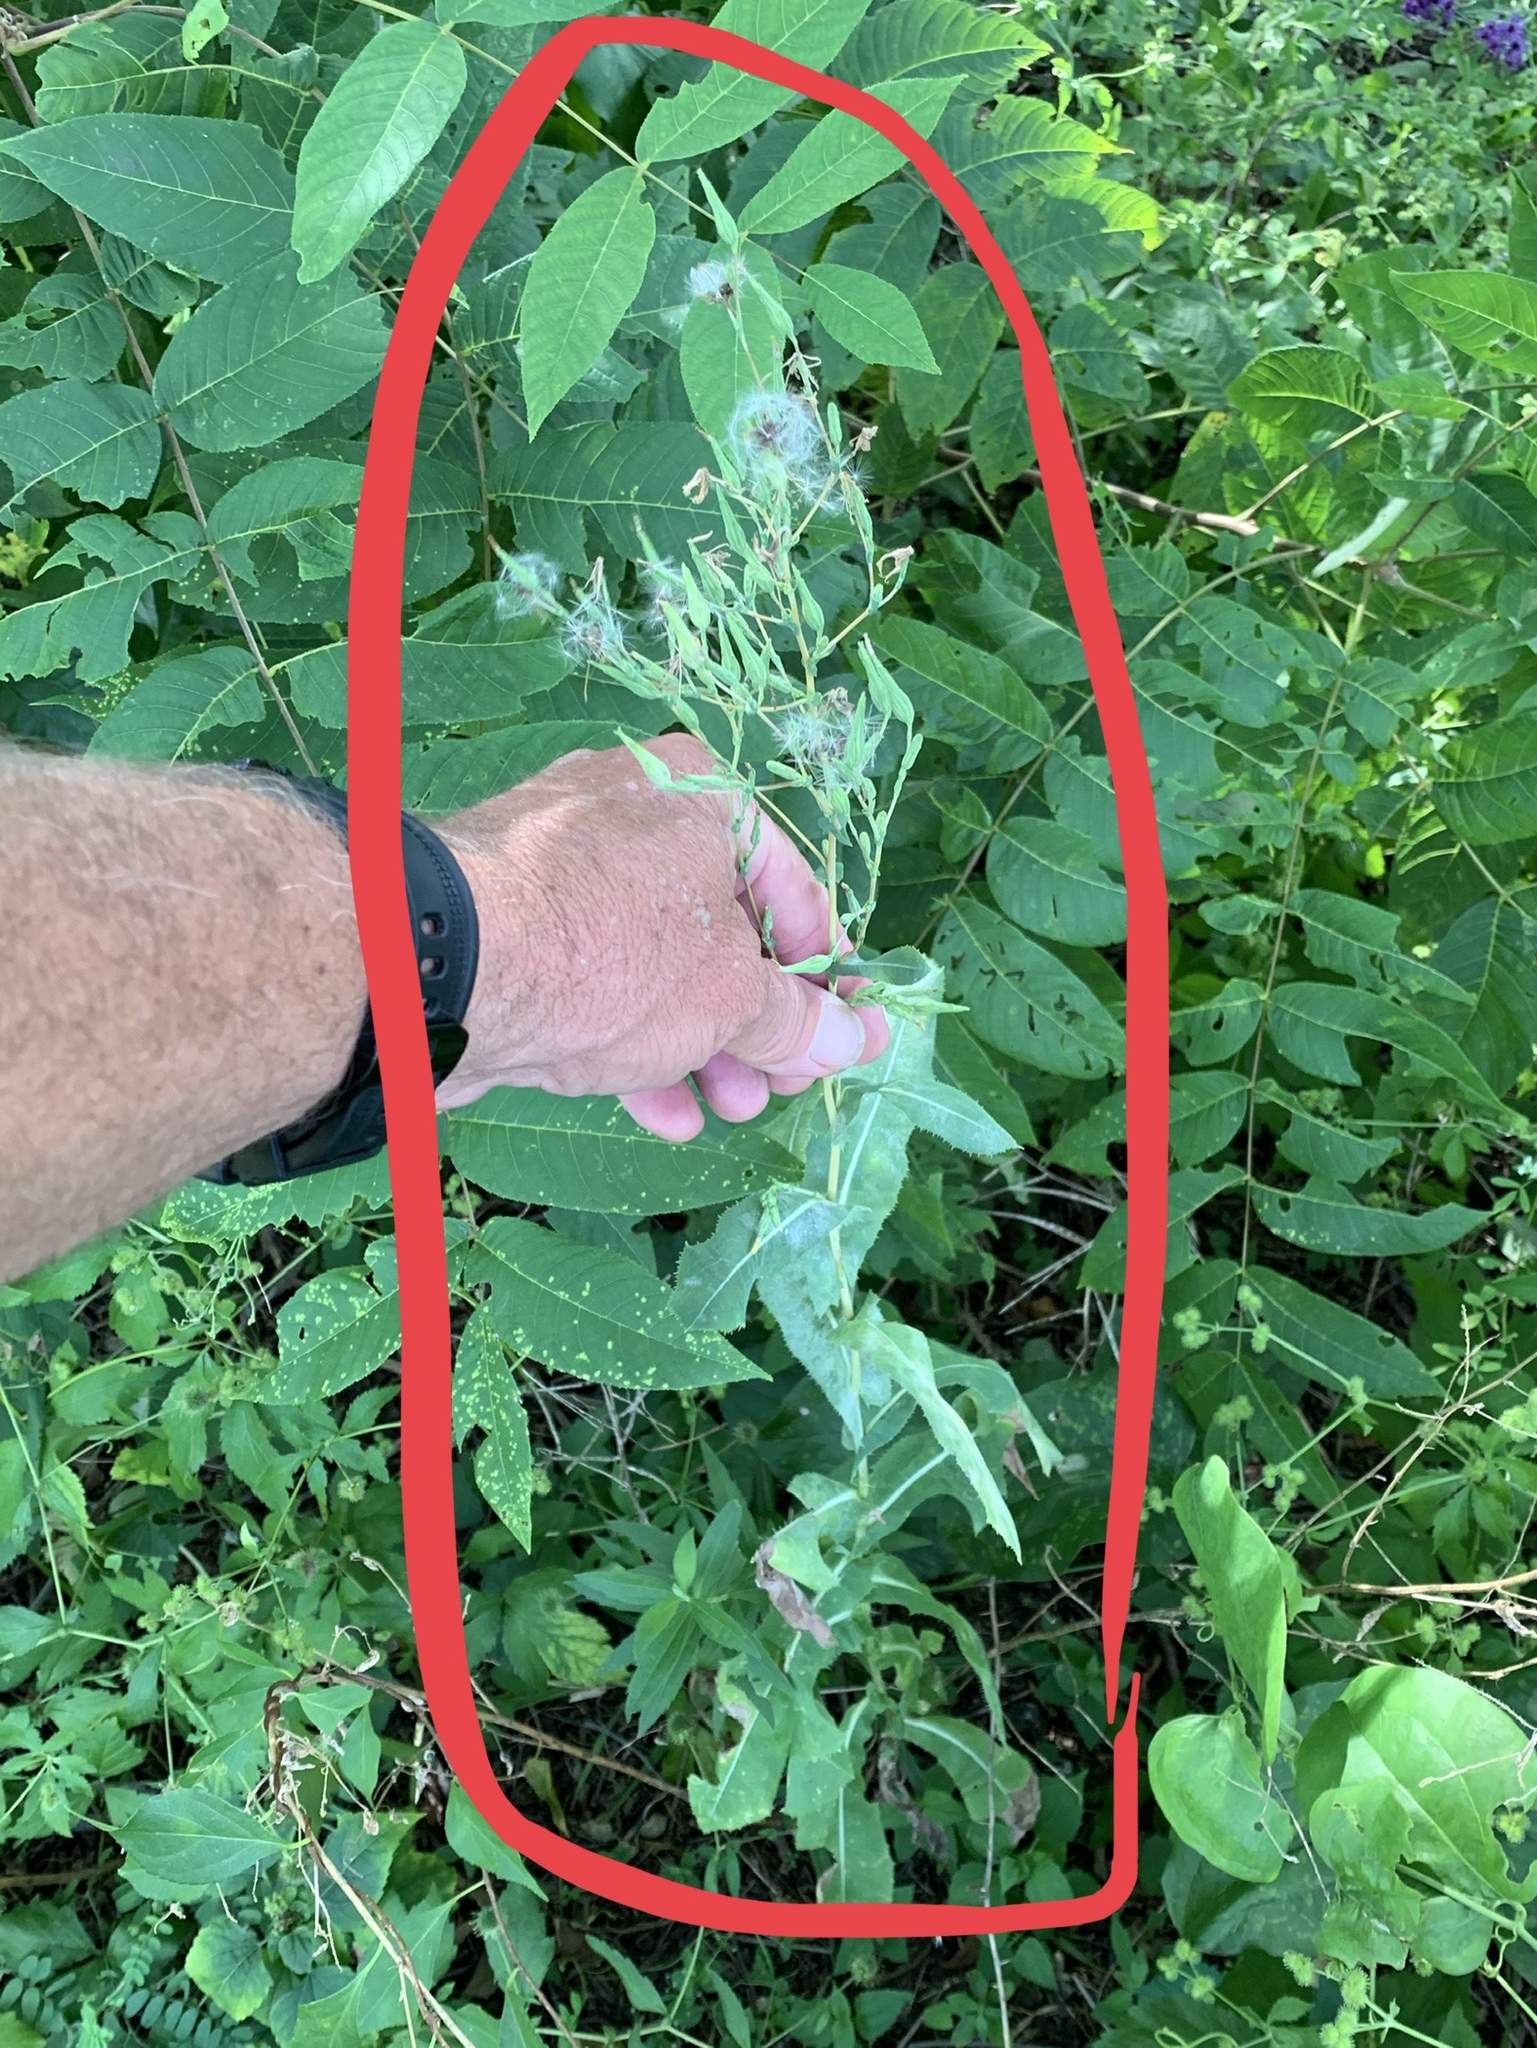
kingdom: Plantae
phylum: Tracheophyta
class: Magnoliopsida
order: Asterales
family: Asteraceae
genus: Lactuca
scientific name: Lactuca serriola
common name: Prickly lettuce
